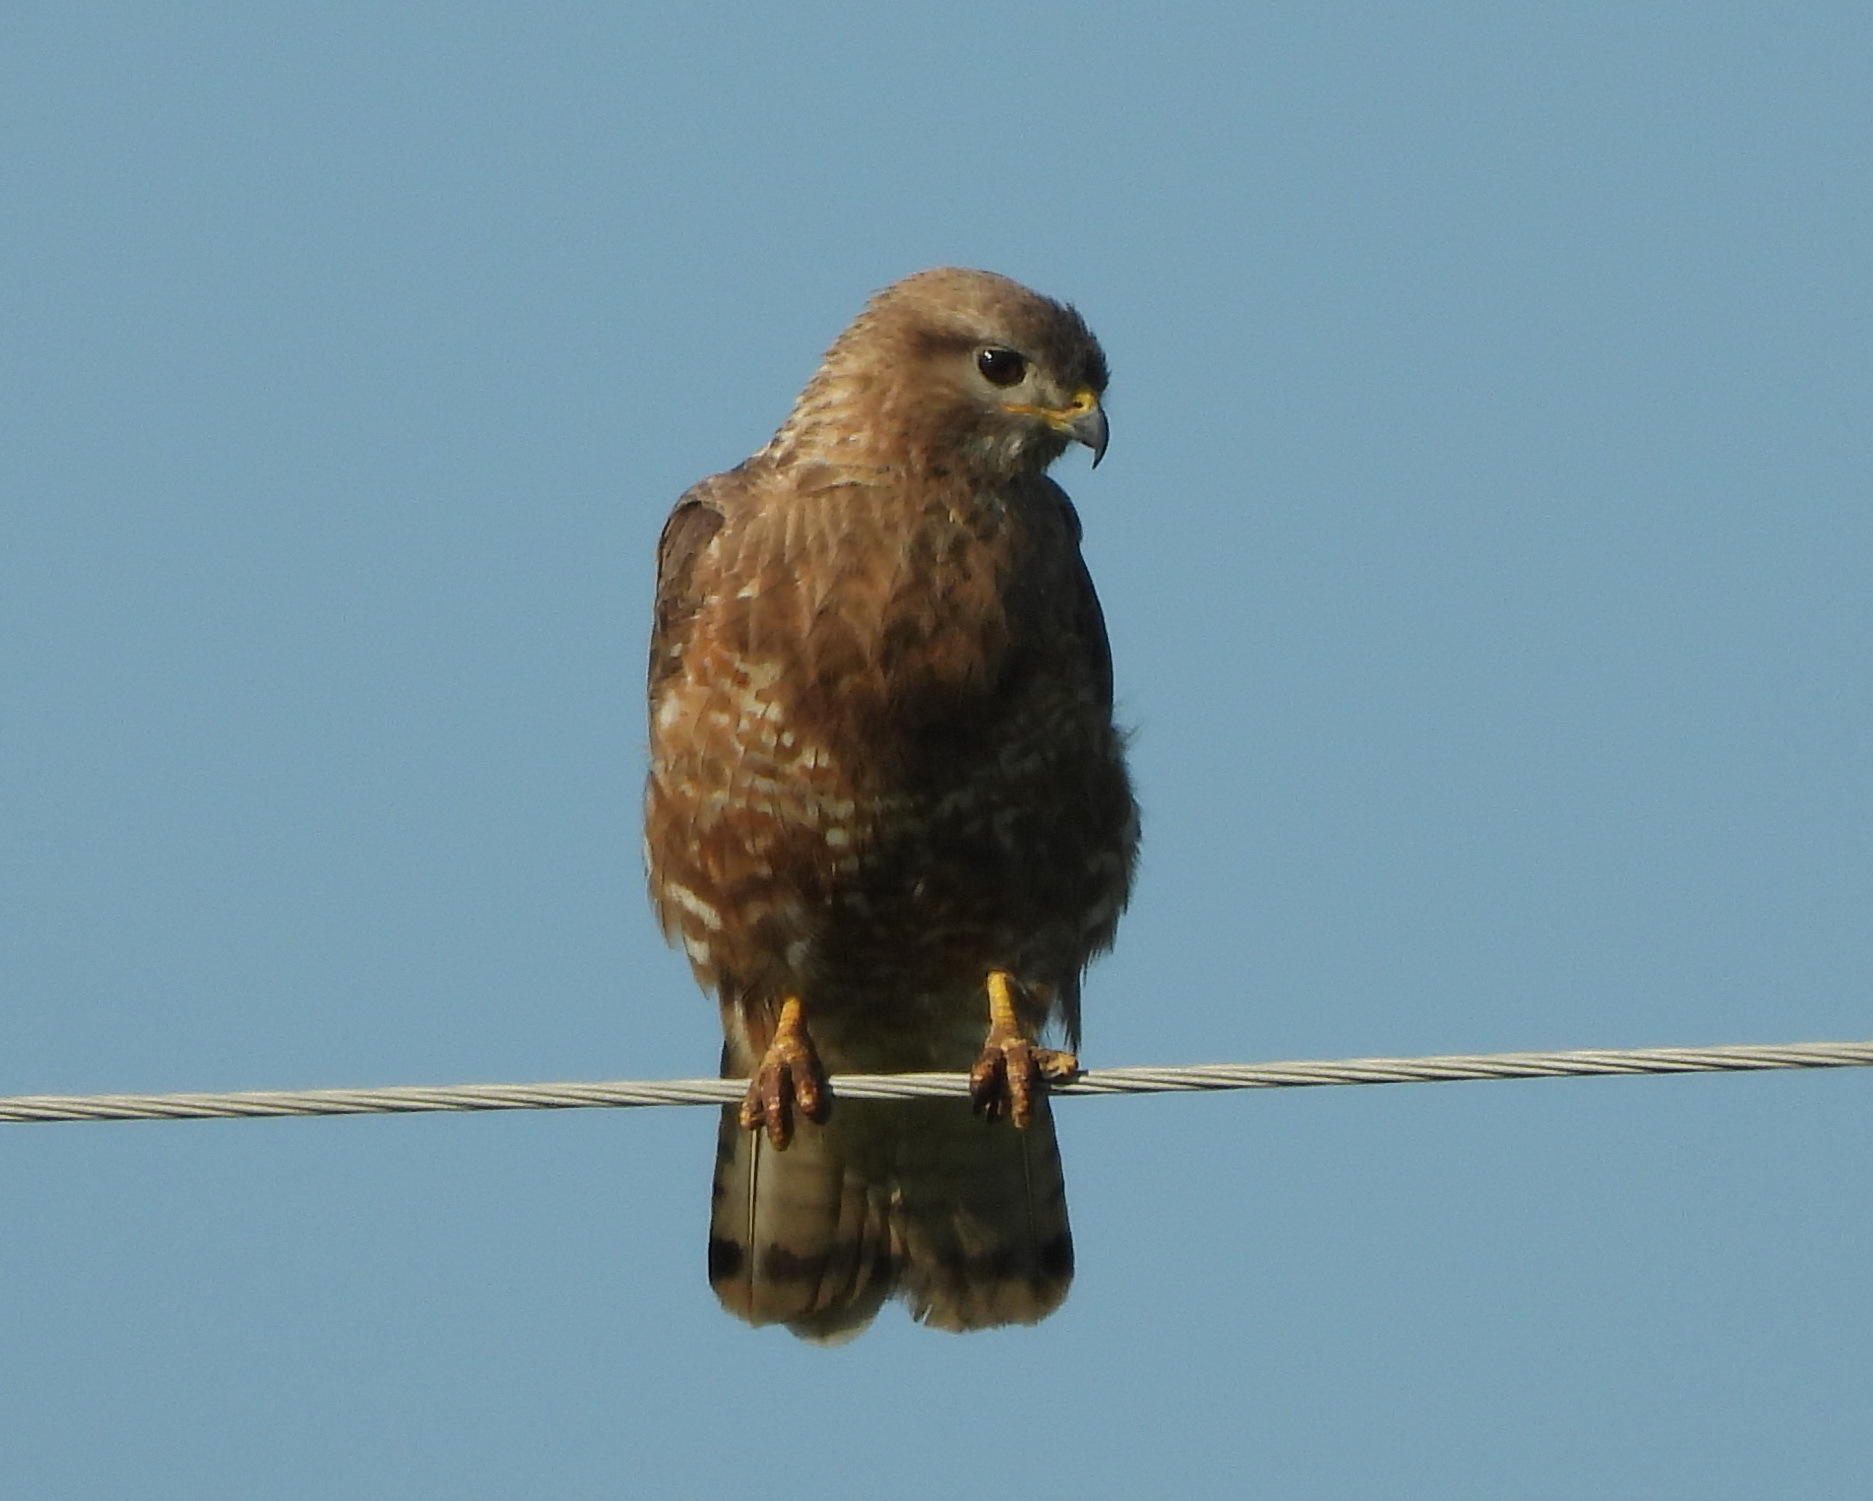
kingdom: Animalia
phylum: Chordata
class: Aves
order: Accipitriformes
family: Accipitridae
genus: Buteo
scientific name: Buteo buteo
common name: Common buzzard
